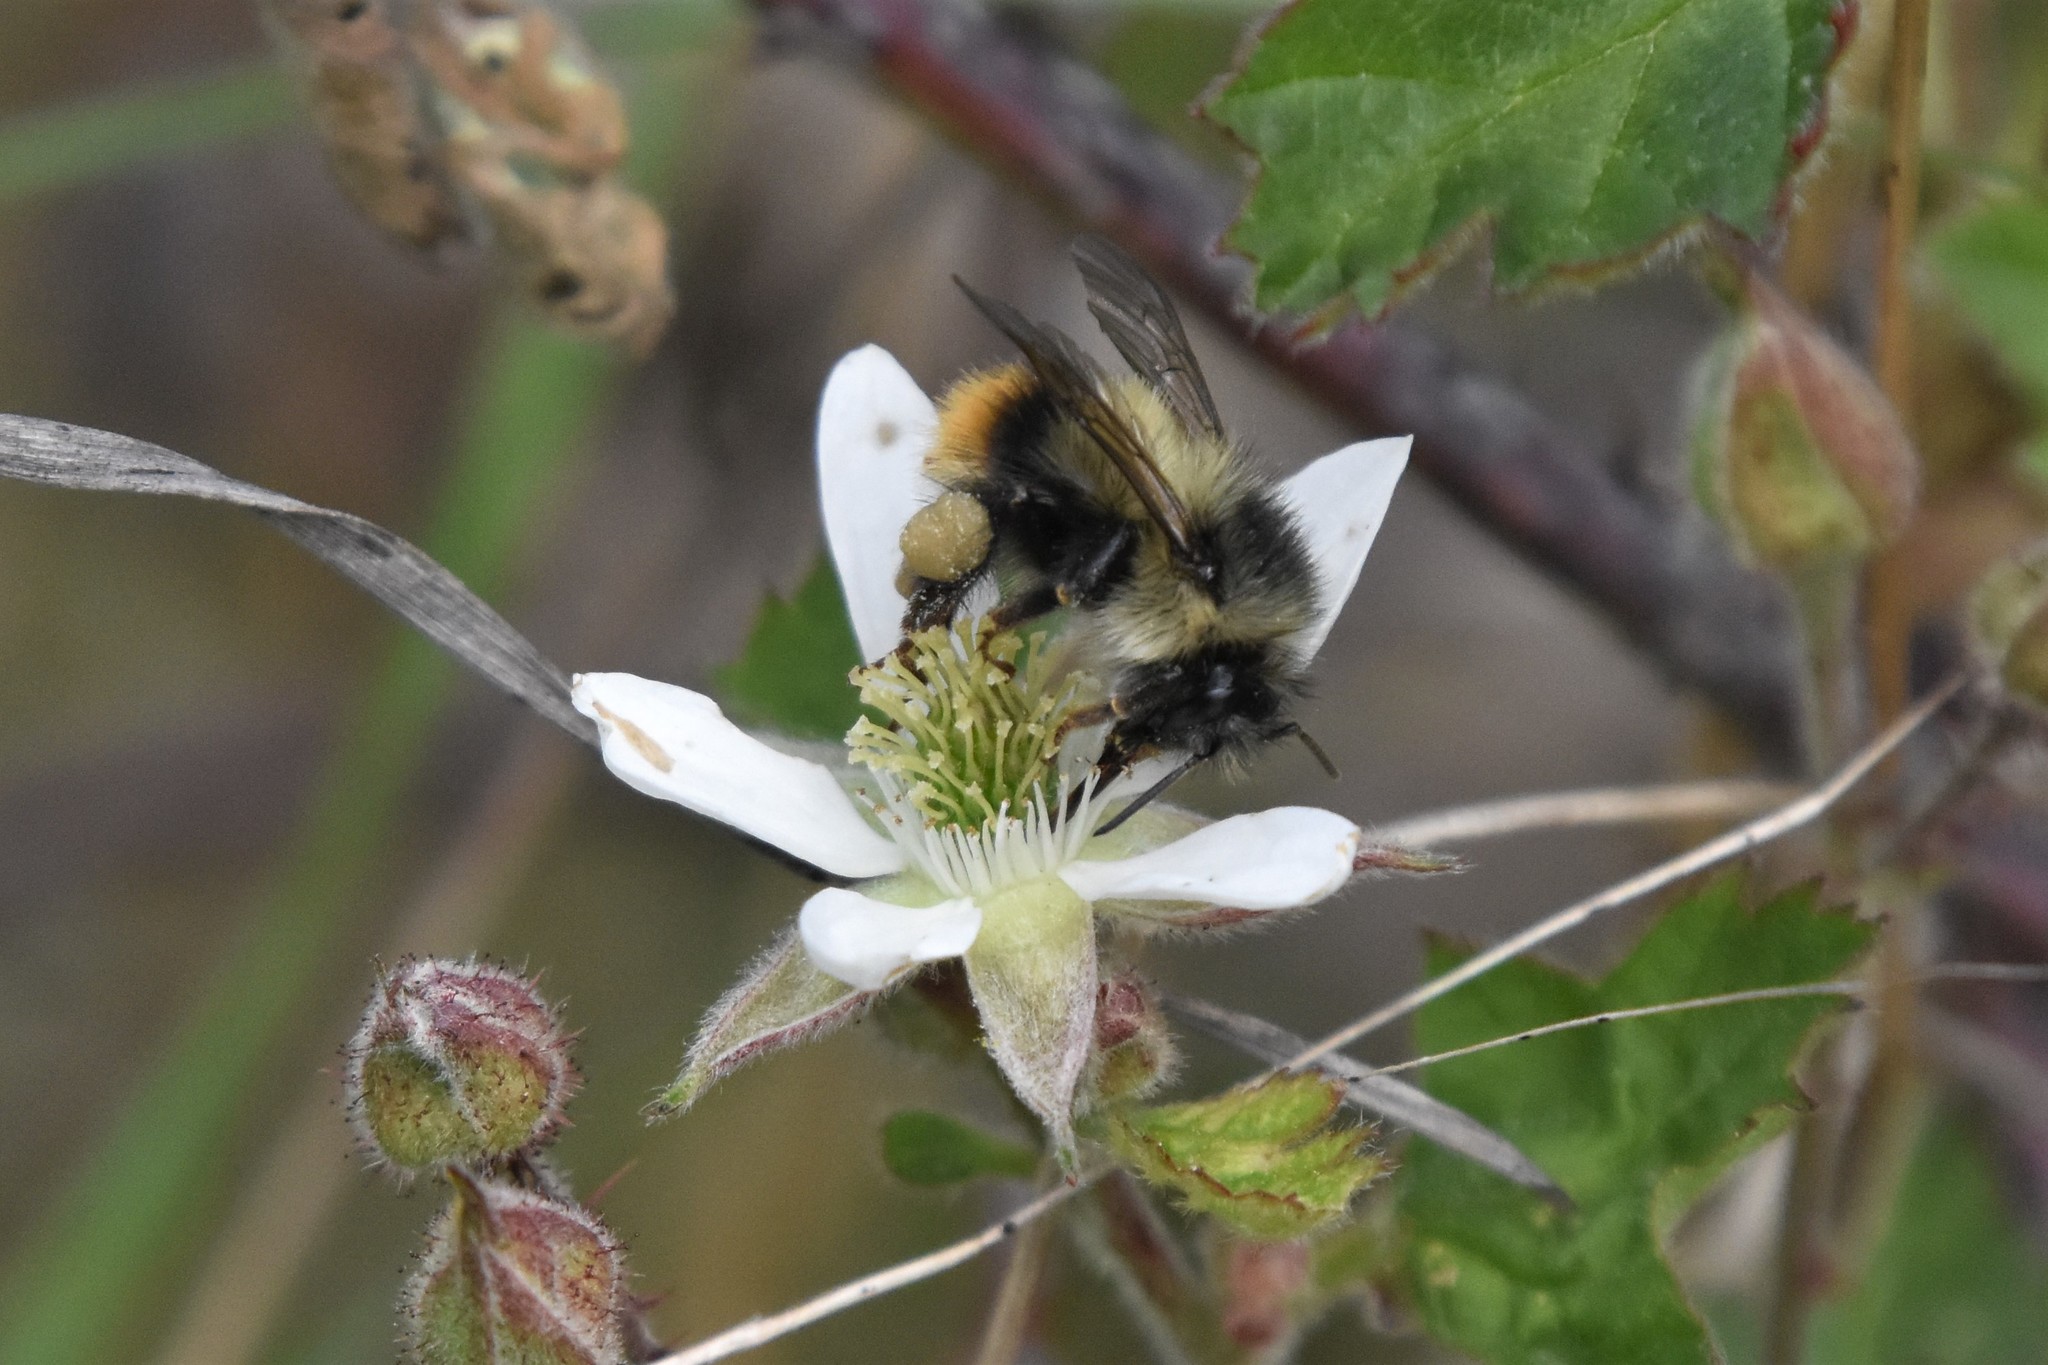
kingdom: Animalia
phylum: Arthropoda
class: Insecta
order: Hymenoptera
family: Apidae
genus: Bombus
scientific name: Bombus mixtus
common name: Fuzzy-horned bumble bee
